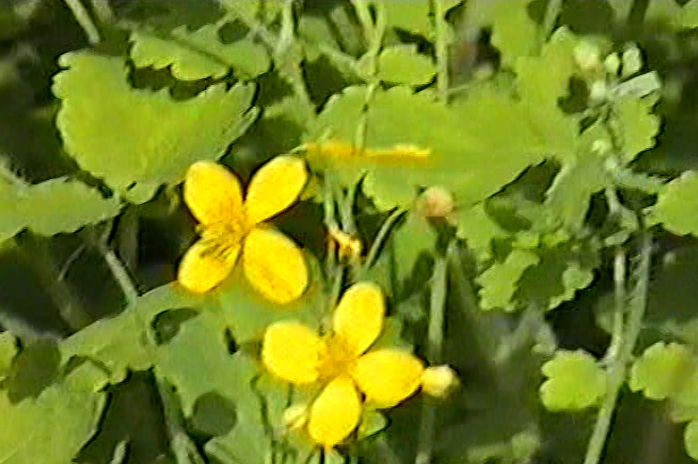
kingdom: Plantae
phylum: Tracheophyta
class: Magnoliopsida
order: Ranunculales
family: Papaveraceae
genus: Chelidonium
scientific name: Chelidonium majus
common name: Greater celandine
